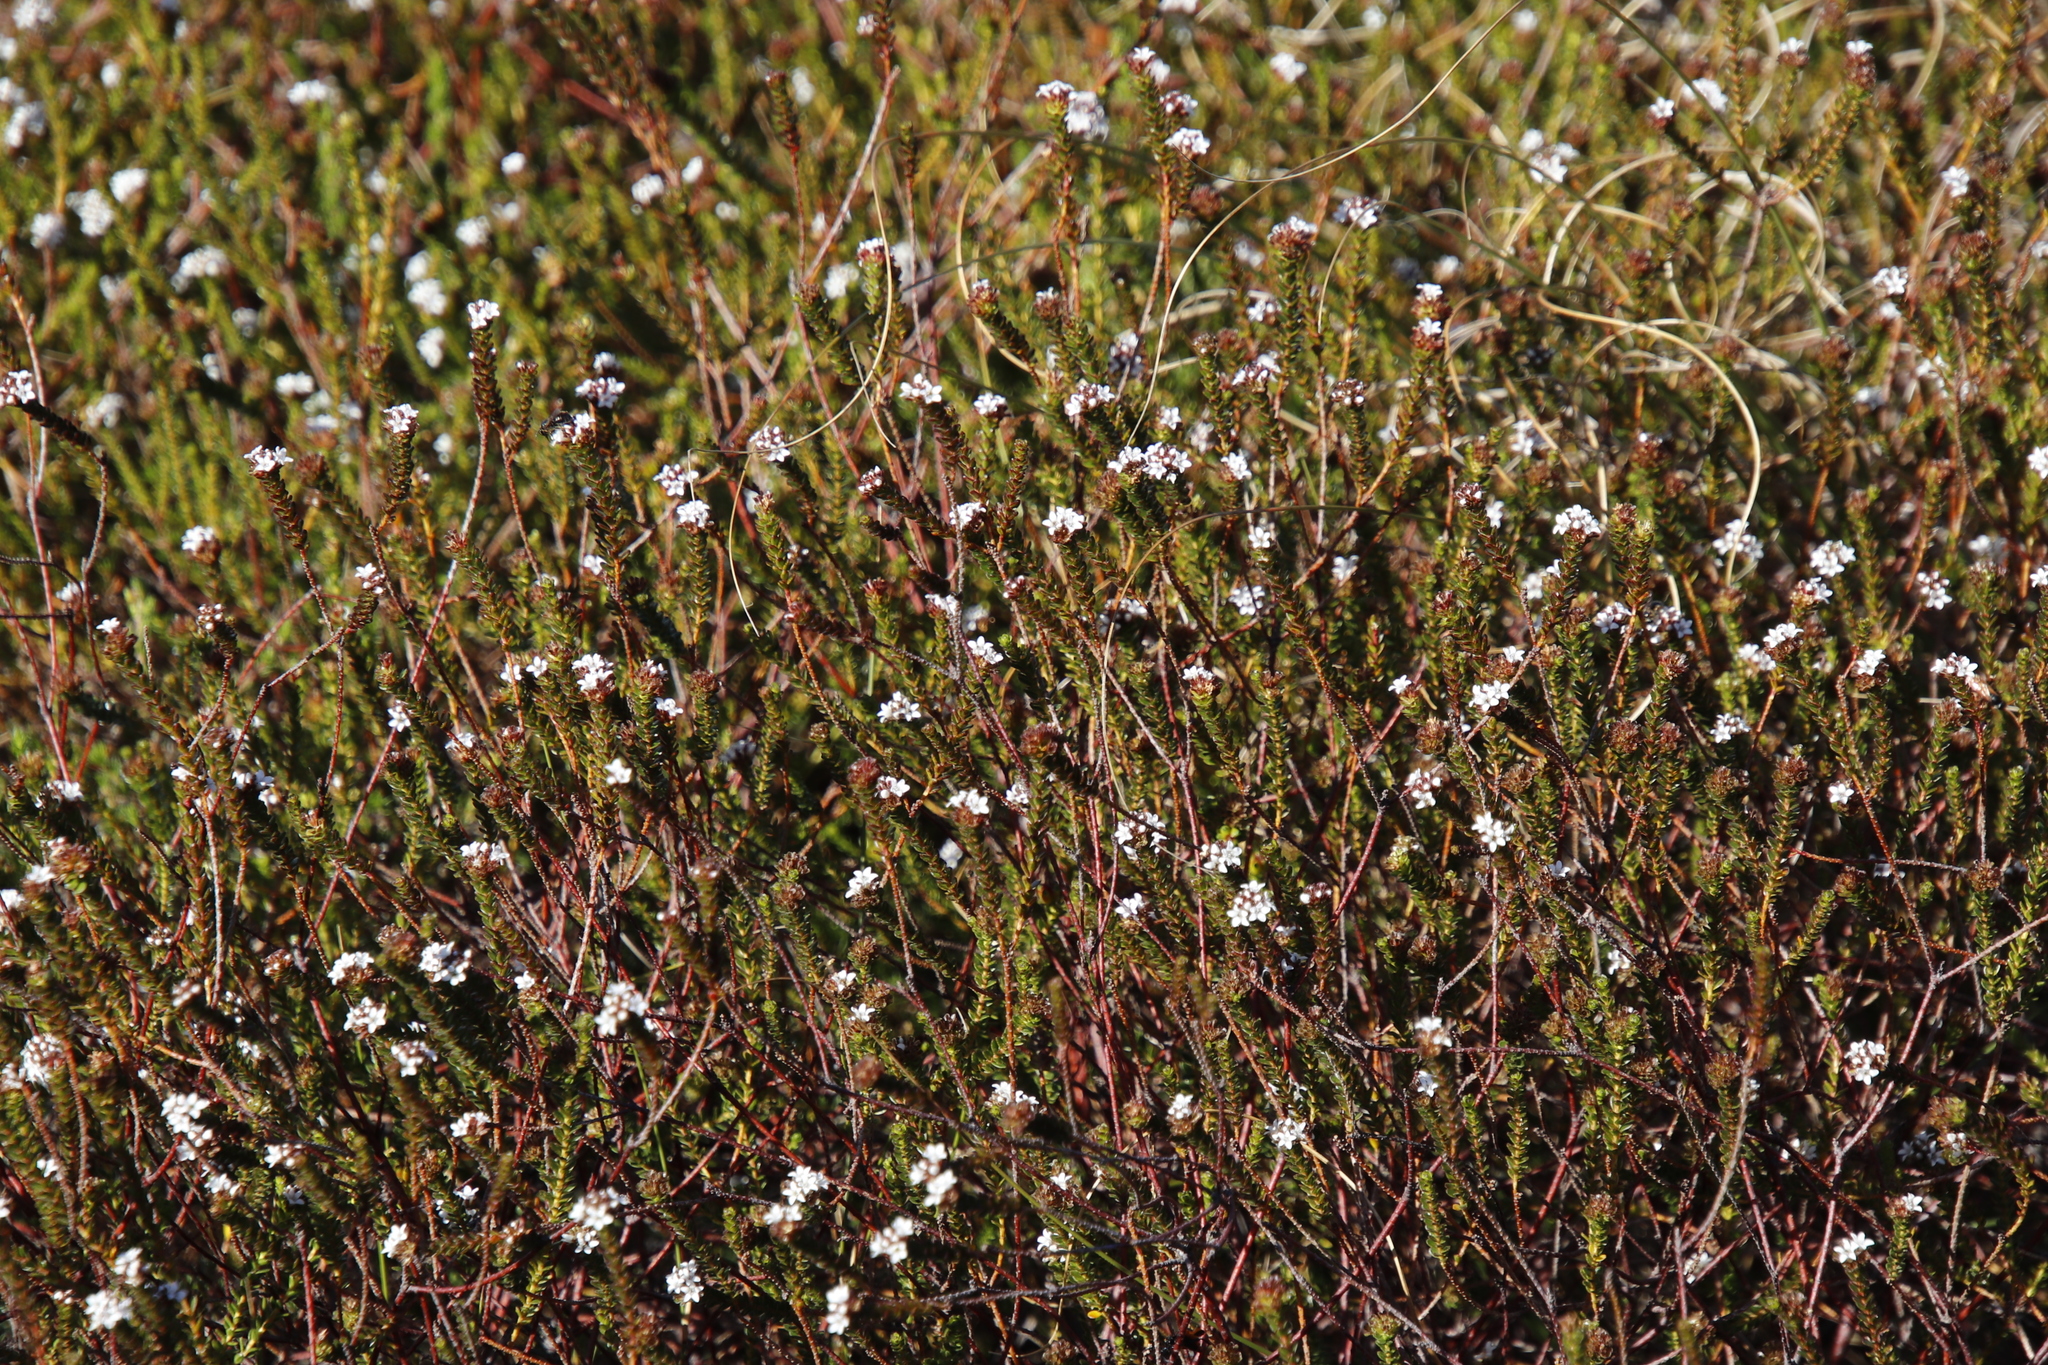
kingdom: Plantae
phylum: Tracheophyta
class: Magnoliopsida
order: Sapindales
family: Rutaceae
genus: Euchaetis
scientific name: Euchaetis glabra
